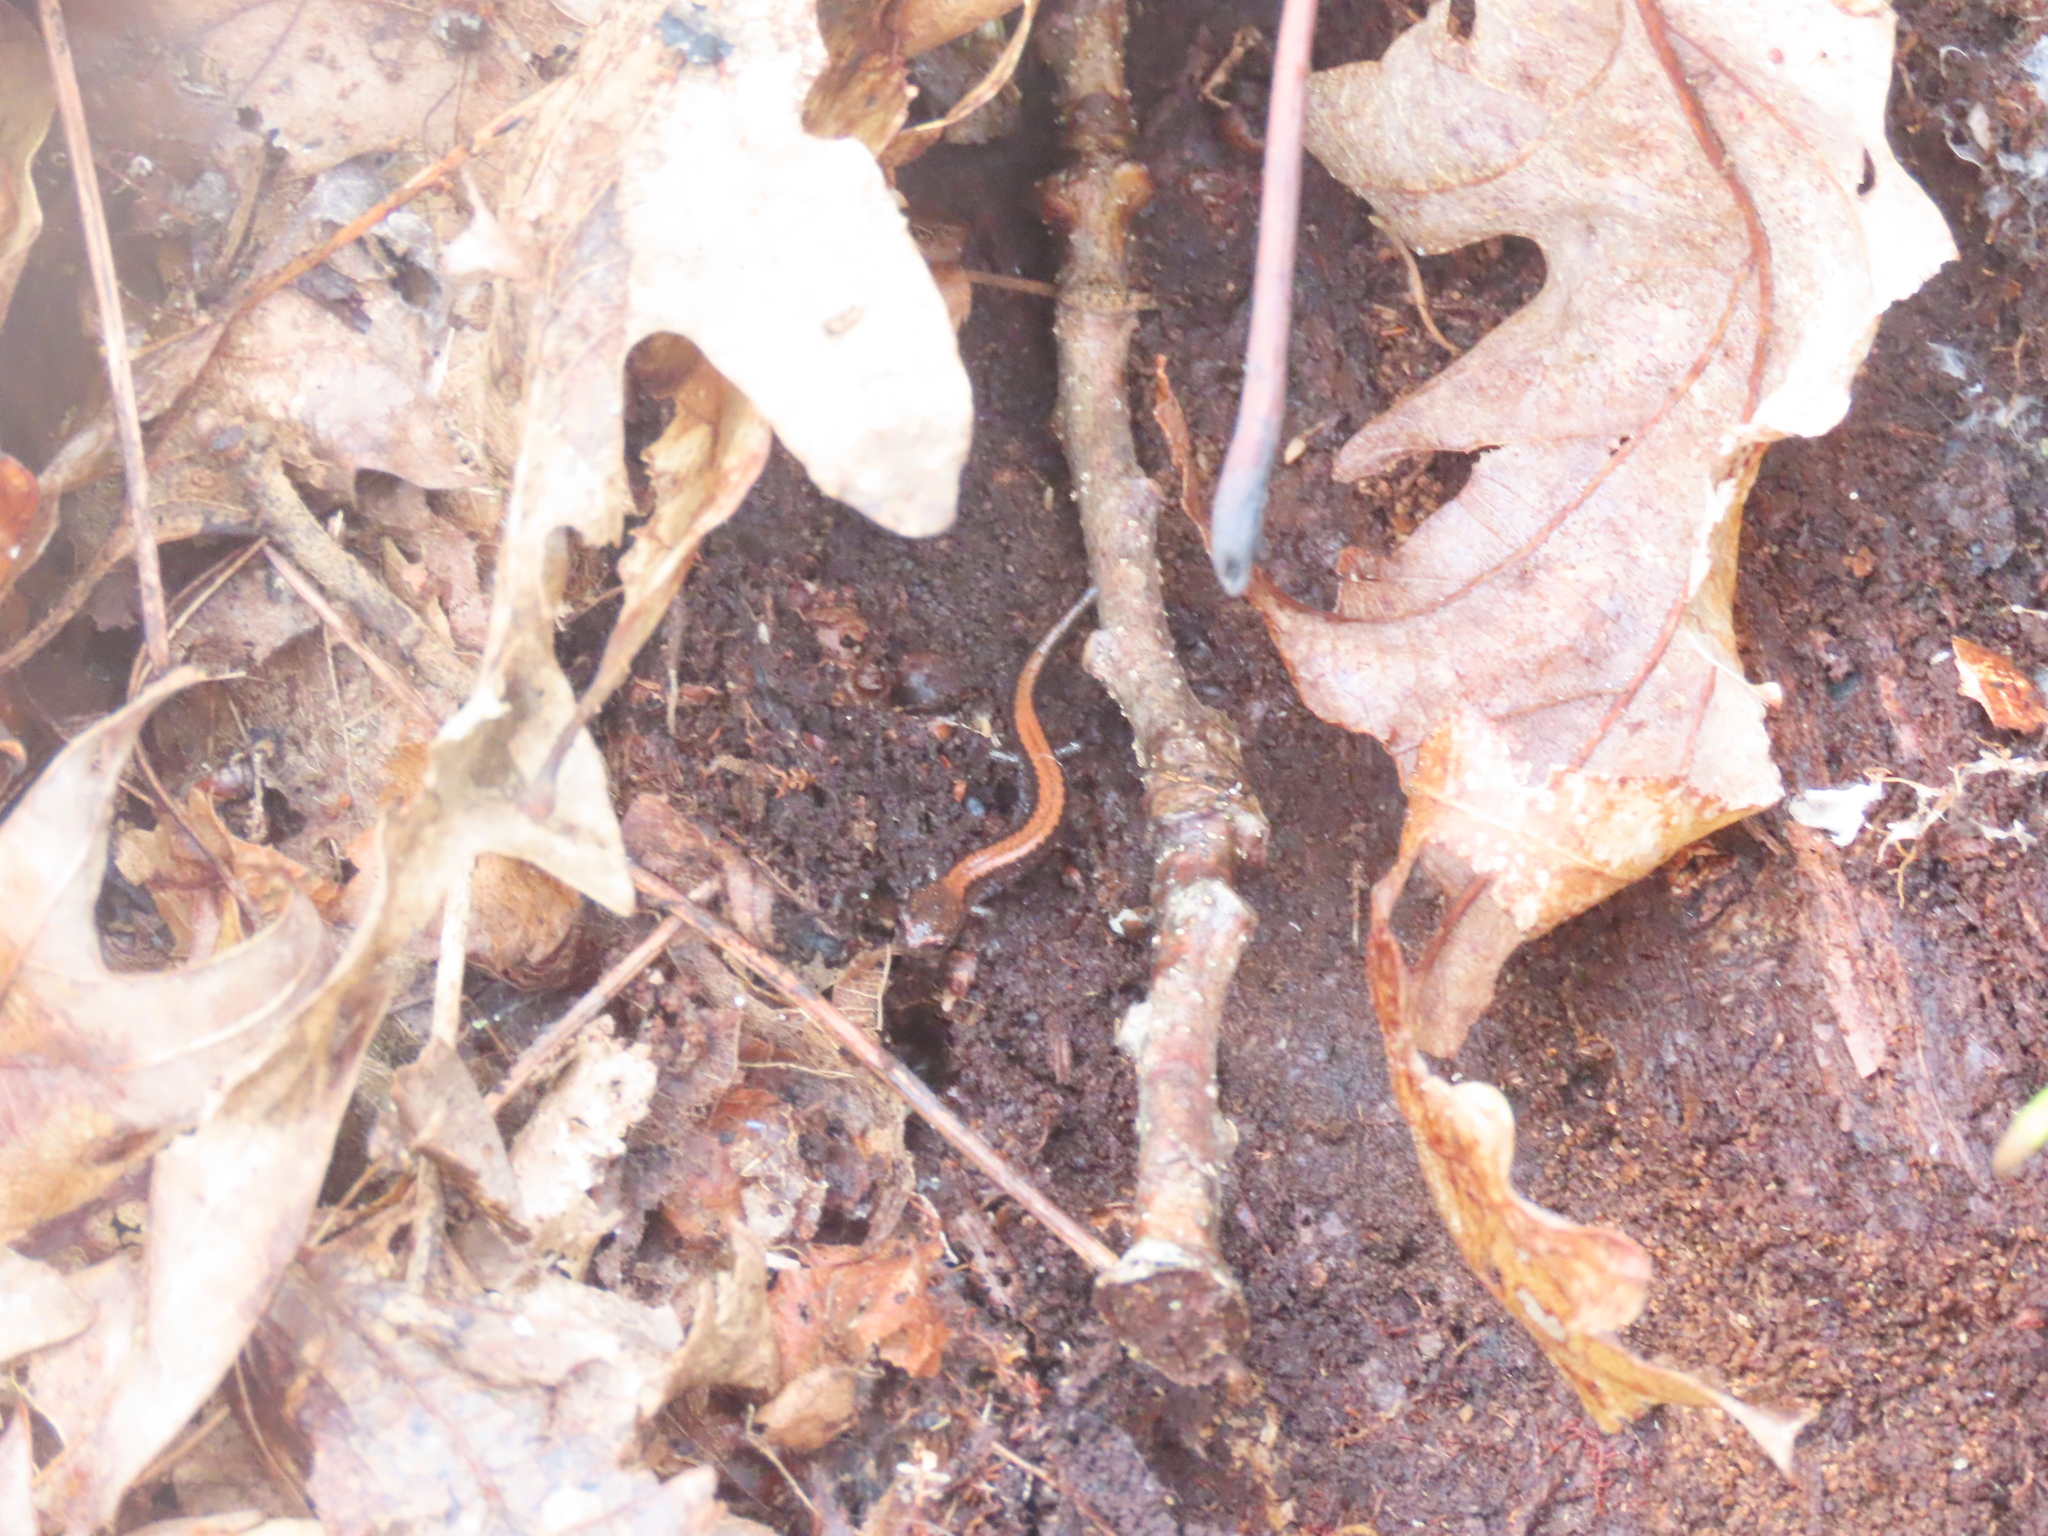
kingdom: Animalia
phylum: Chordata
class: Amphibia
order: Caudata
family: Plethodontidae
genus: Plethodon
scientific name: Plethodon cinereus
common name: Redback salamander
